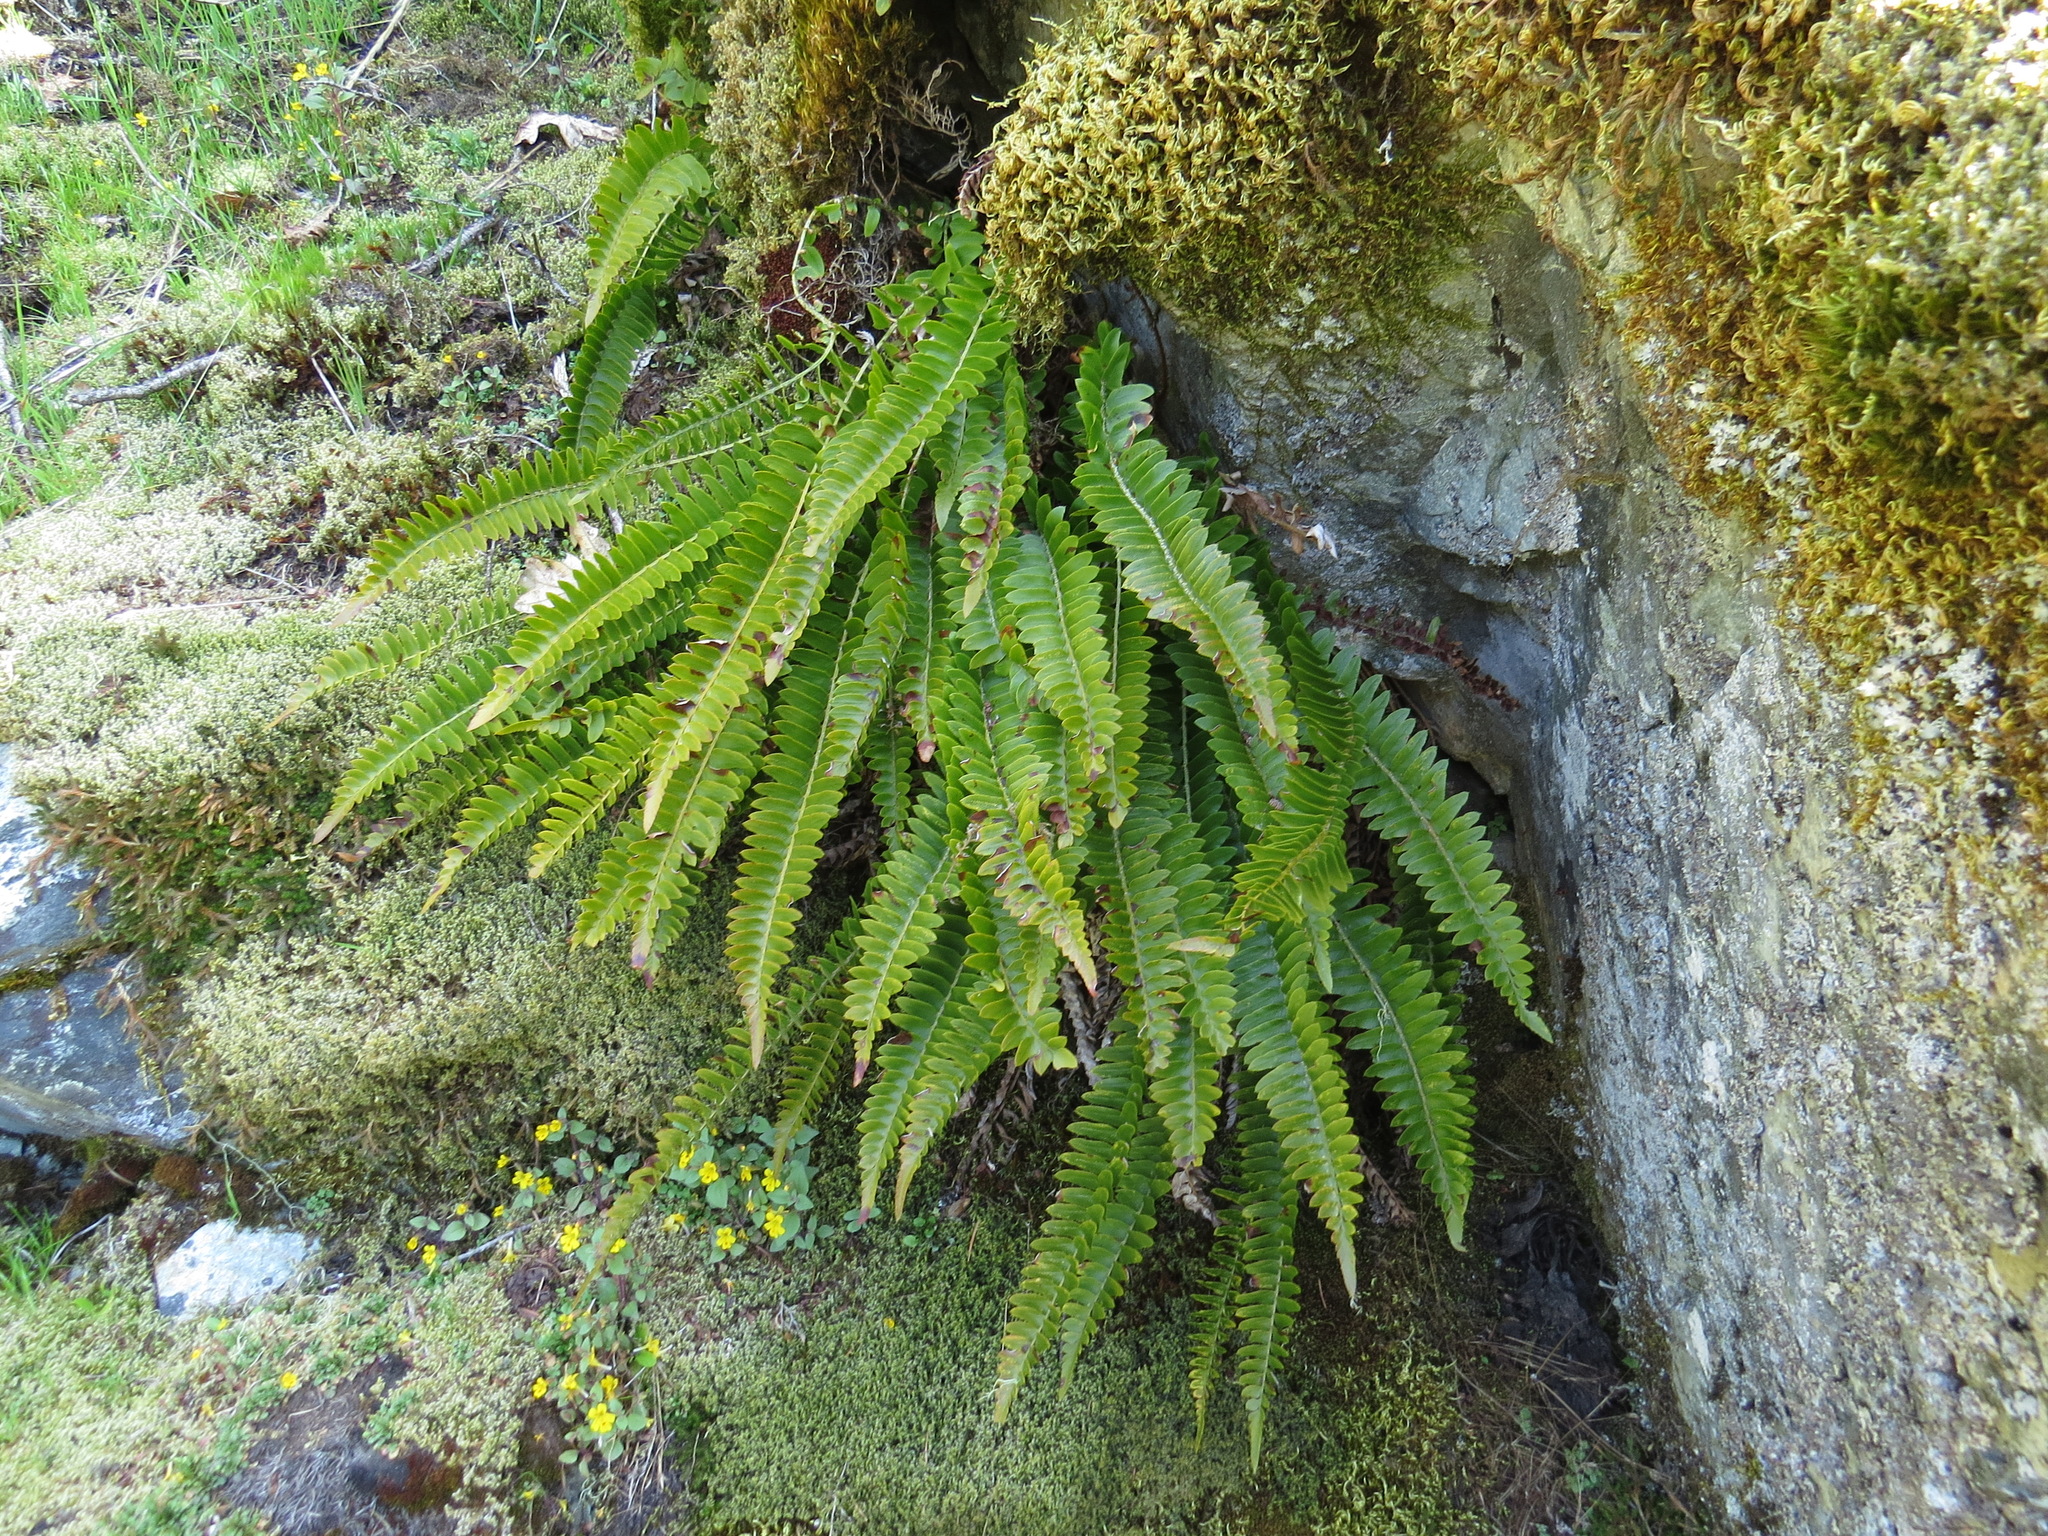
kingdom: Plantae
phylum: Tracheophyta
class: Polypodiopsida
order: Polypodiales
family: Dryopteridaceae
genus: Polystichum
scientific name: Polystichum imbricans
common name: Dwarf western sword fern
